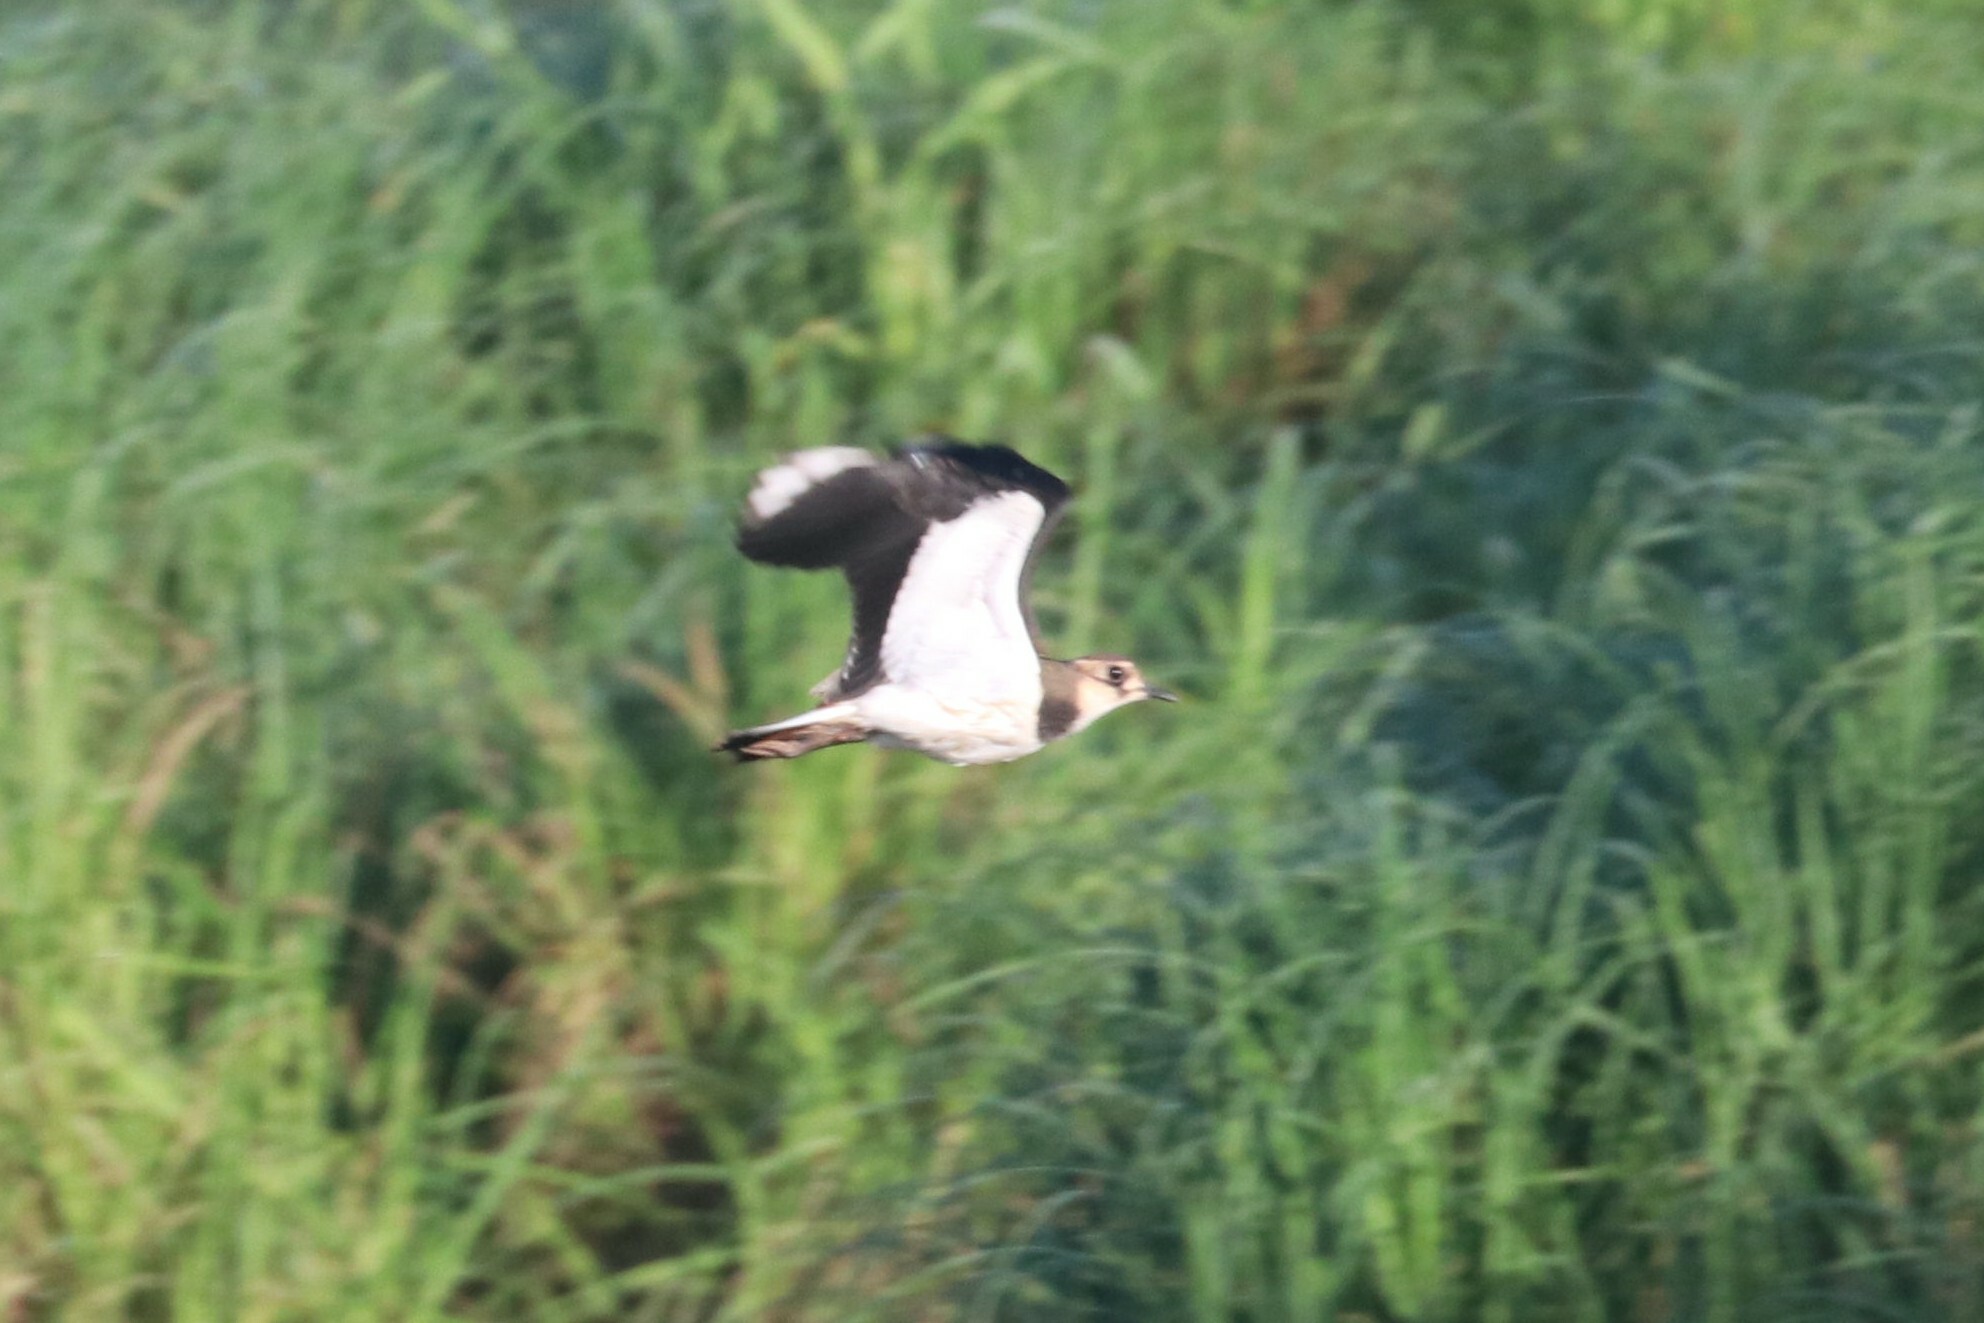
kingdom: Animalia
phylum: Chordata
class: Aves
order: Charadriiformes
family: Charadriidae
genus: Vanellus
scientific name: Vanellus vanellus
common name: Northern lapwing
